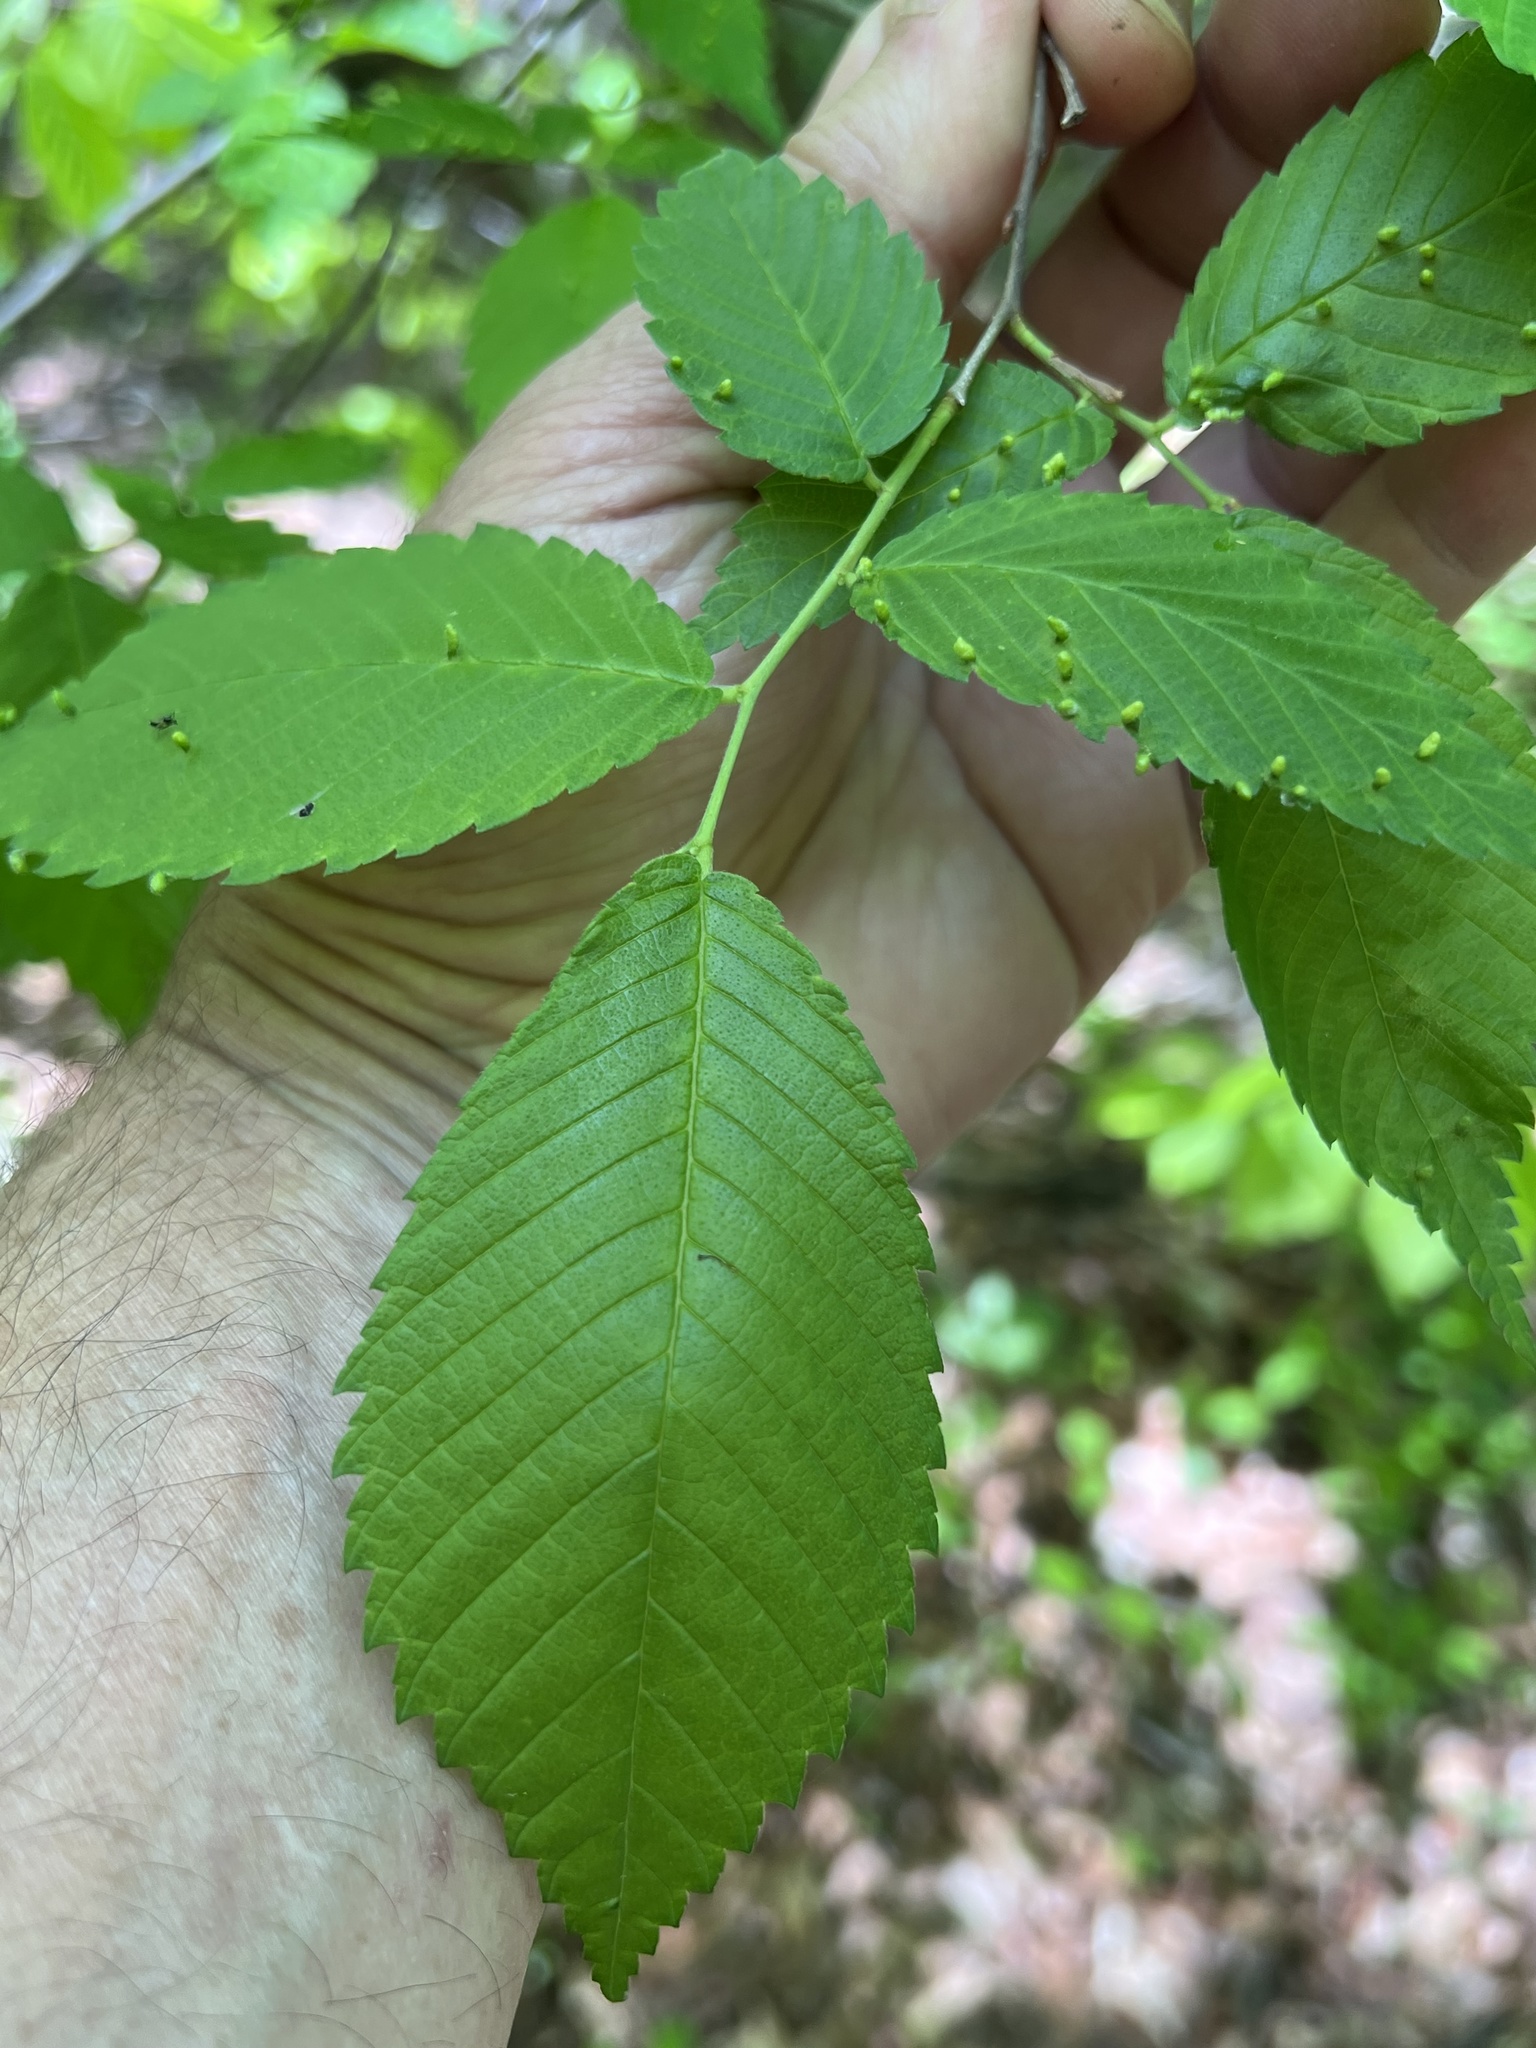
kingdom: Animalia
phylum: Arthropoda
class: Arachnida
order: Trombidiformes
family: Eriophyidae
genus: Aceria
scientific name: Aceria
